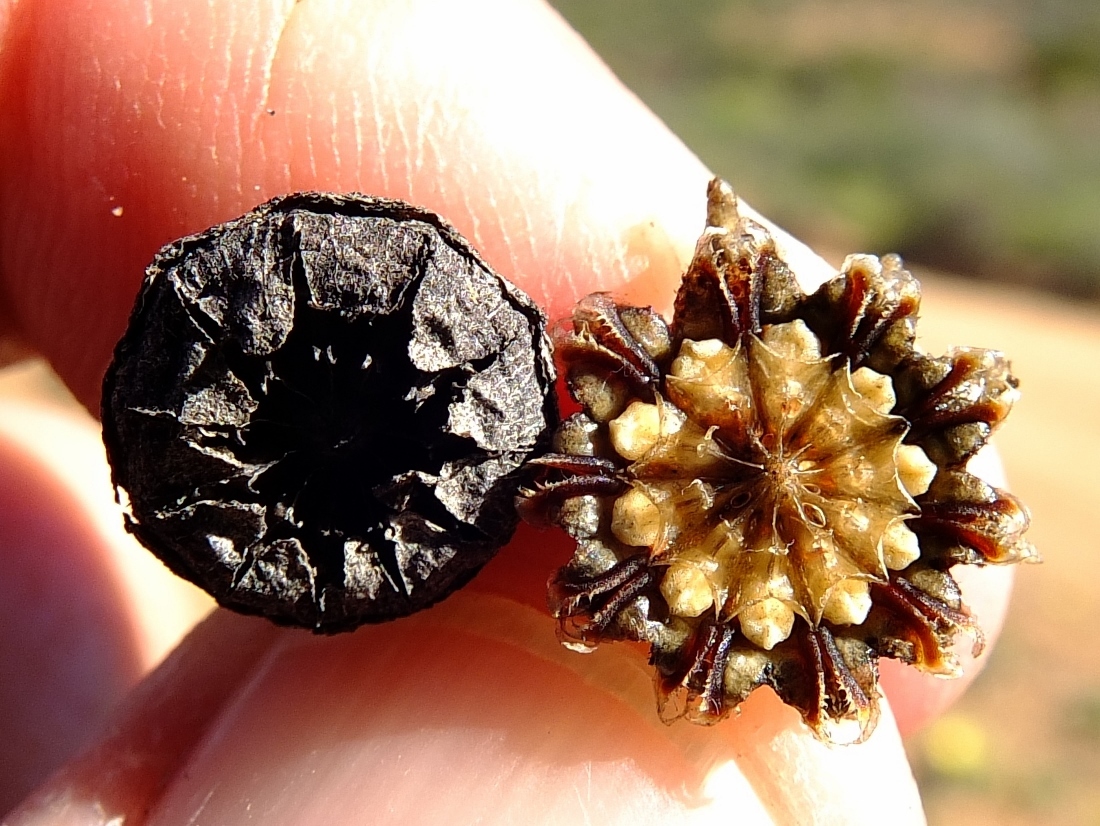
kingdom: Plantae
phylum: Tracheophyta
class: Magnoliopsida
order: Caryophyllales
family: Aizoaceae
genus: Cheiridopsis
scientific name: Cheiridopsis namaquensis
